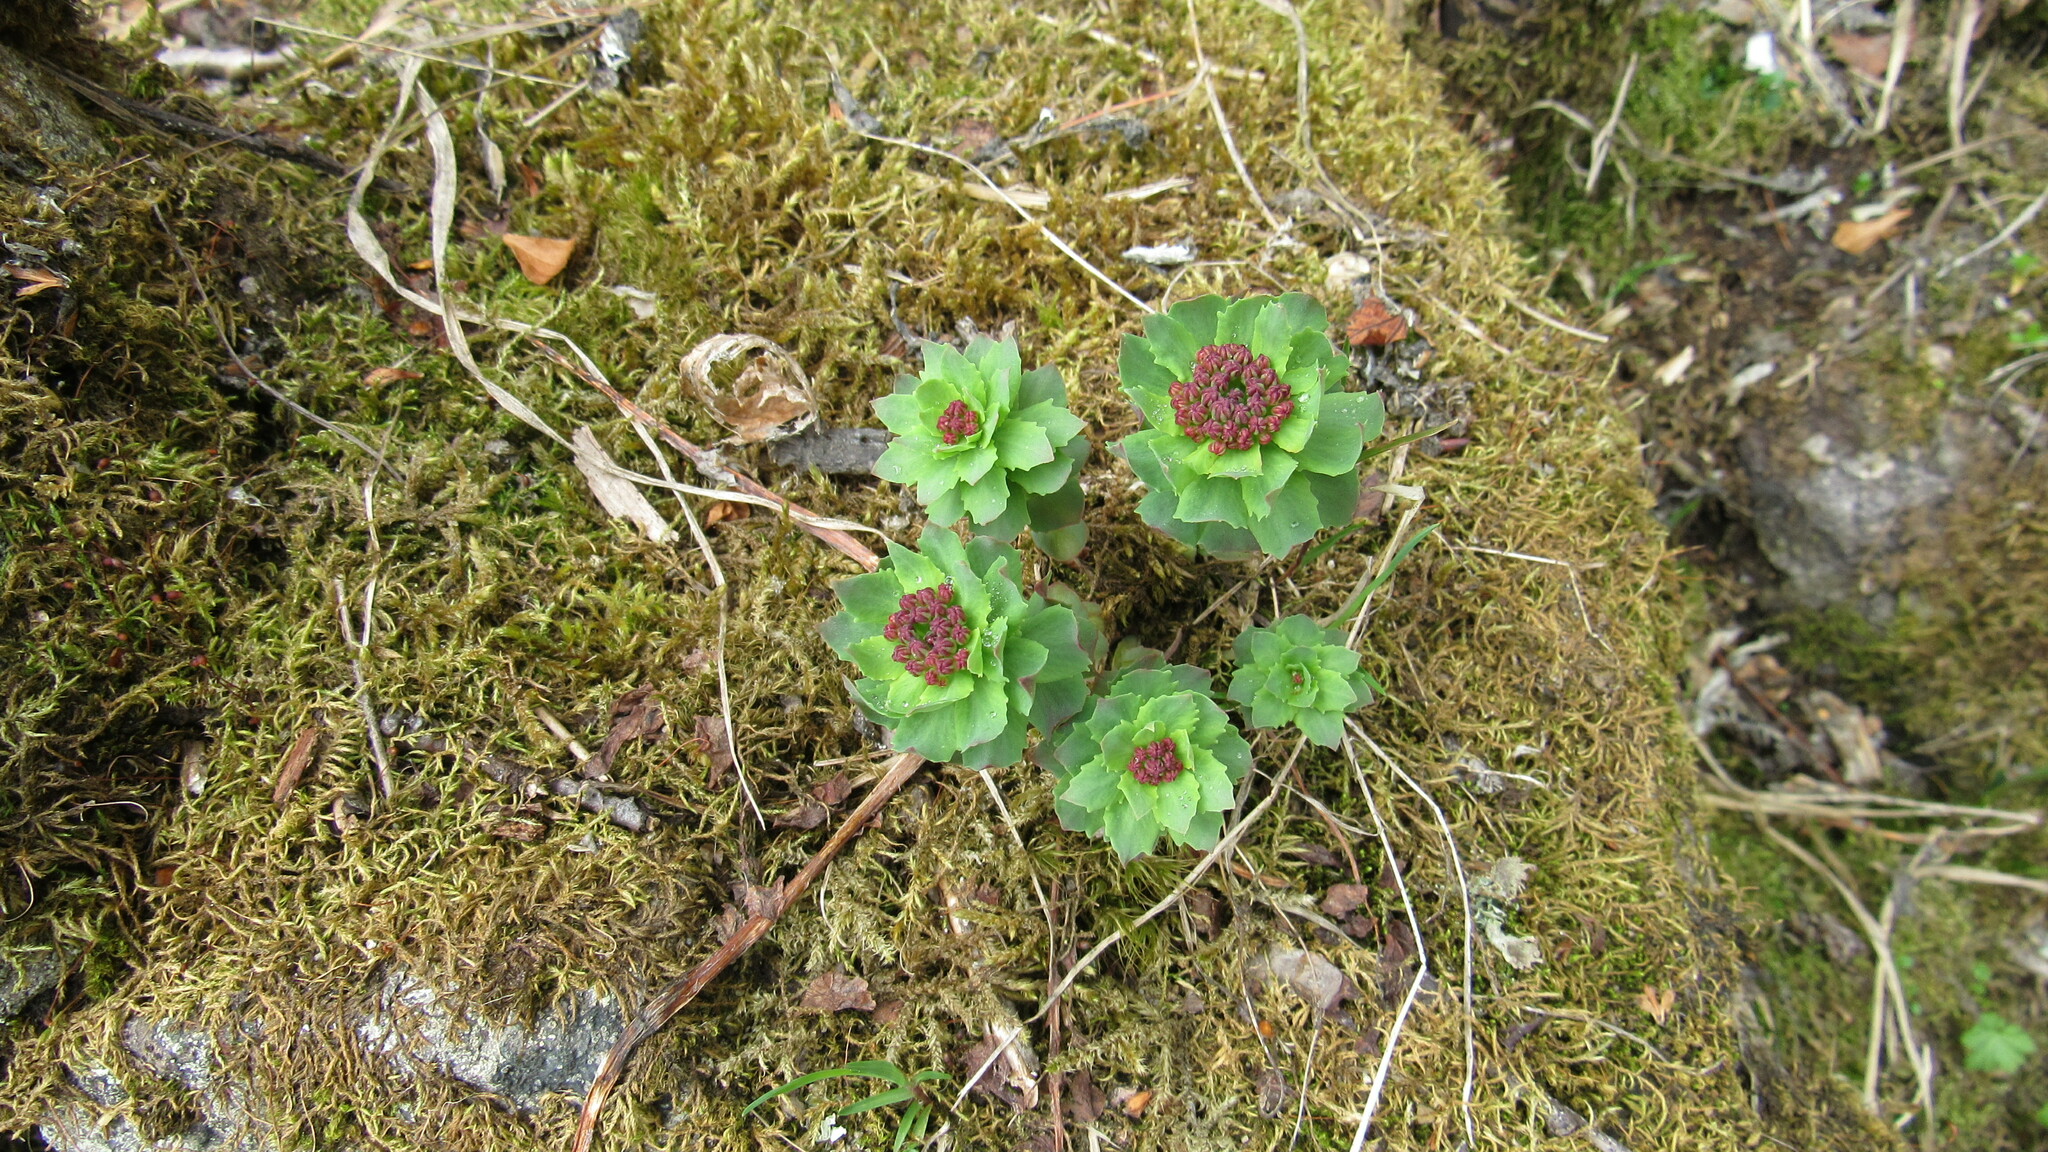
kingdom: Plantae
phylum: Tracheophyta
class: Magnoliopsida
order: Saxifragales
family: Crassulaceae
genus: Rhodiola
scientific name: Rhodiola integrifolia
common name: Western roseroot
